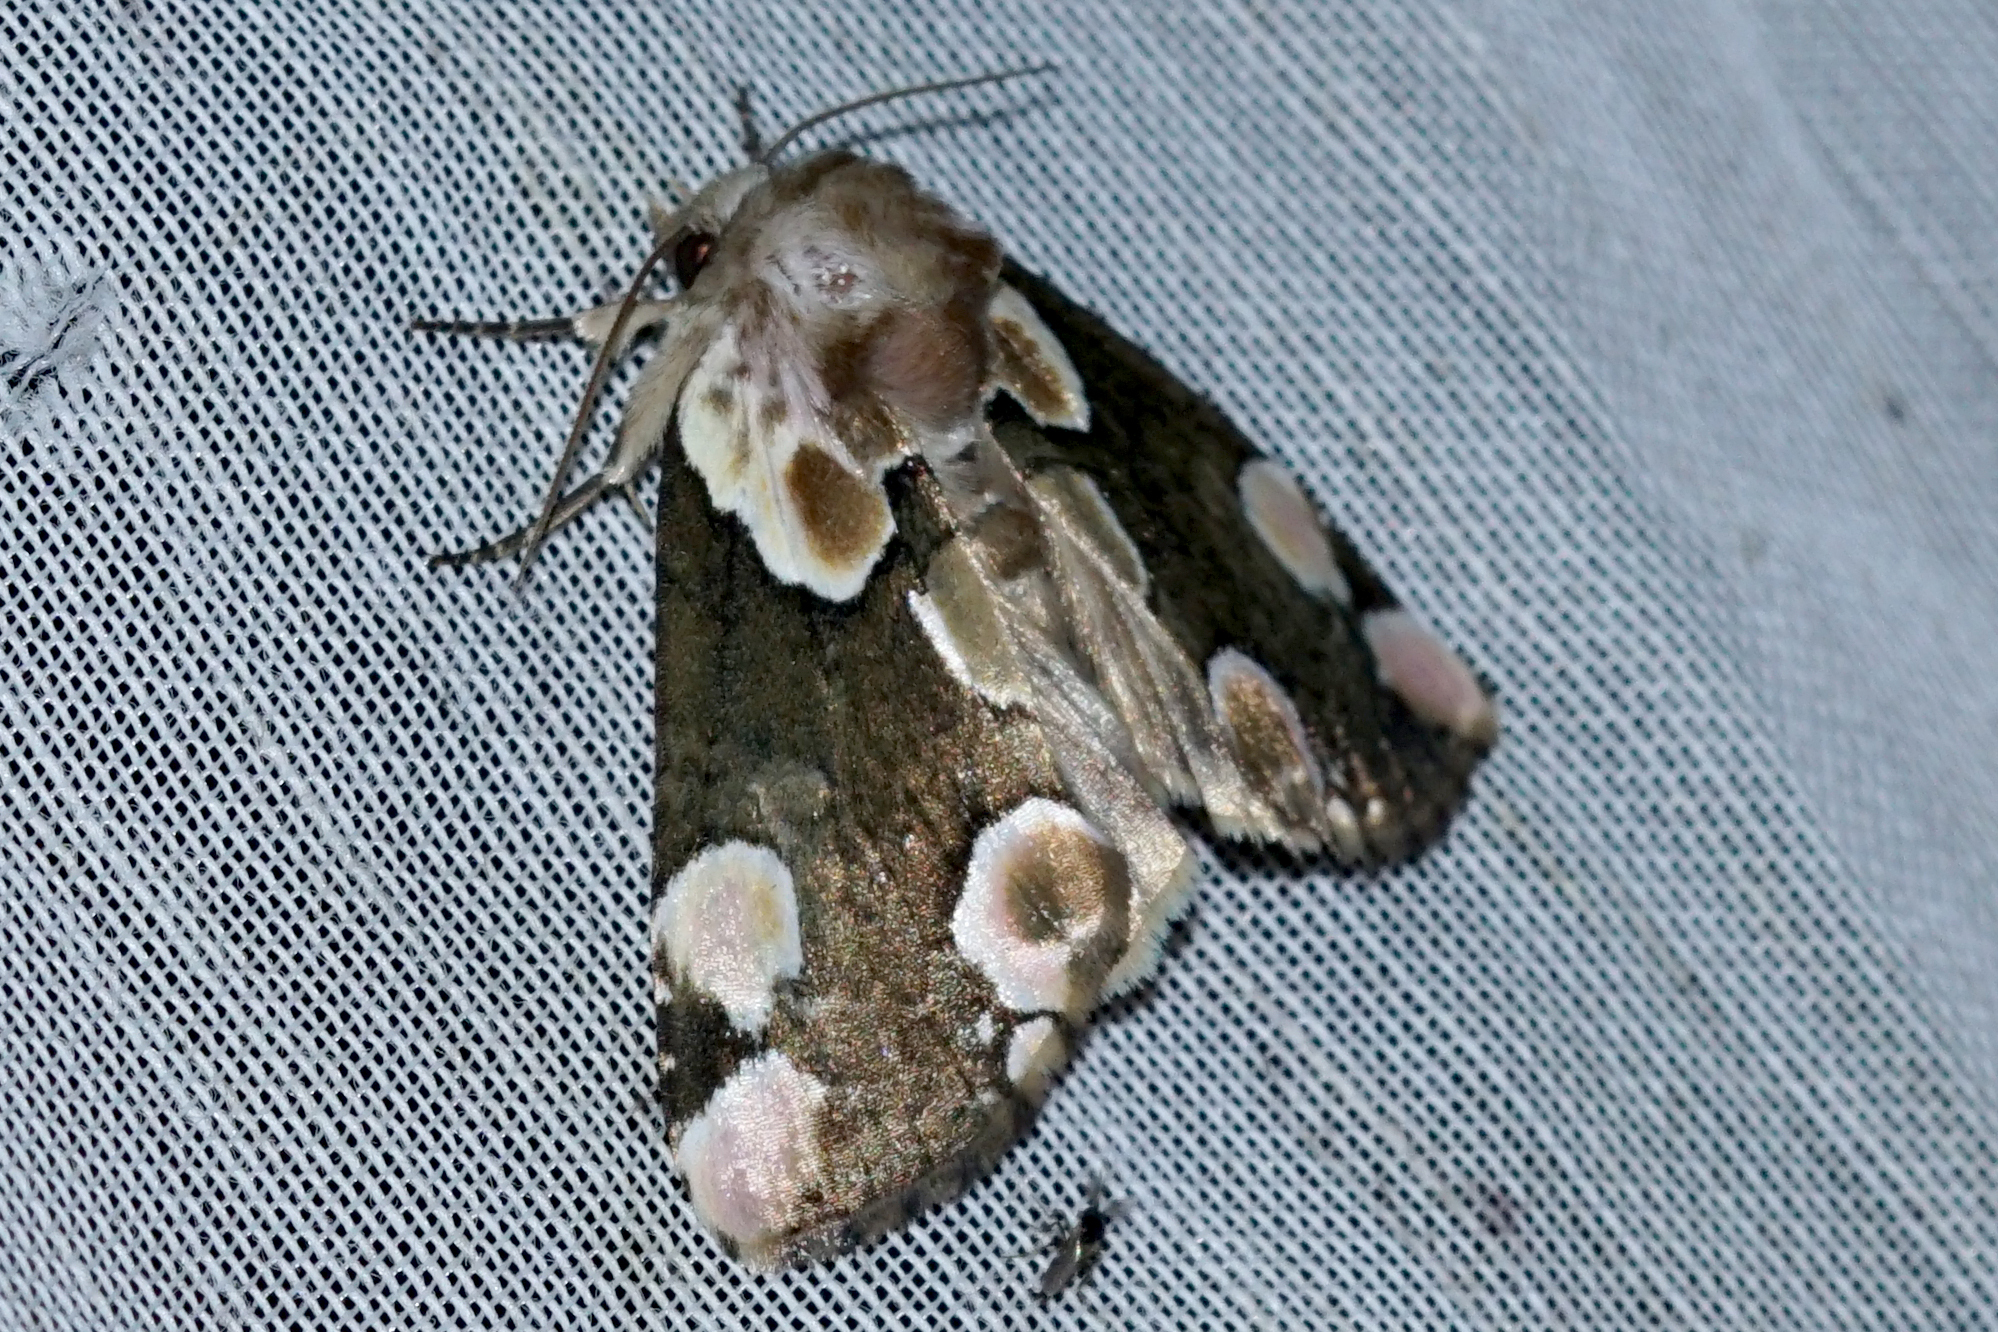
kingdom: Animalia
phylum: Arthropoda
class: Insecta
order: Lepidoptera
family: Drepanidae
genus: Thyatira
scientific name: Thyatira batis
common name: Peach blossom
